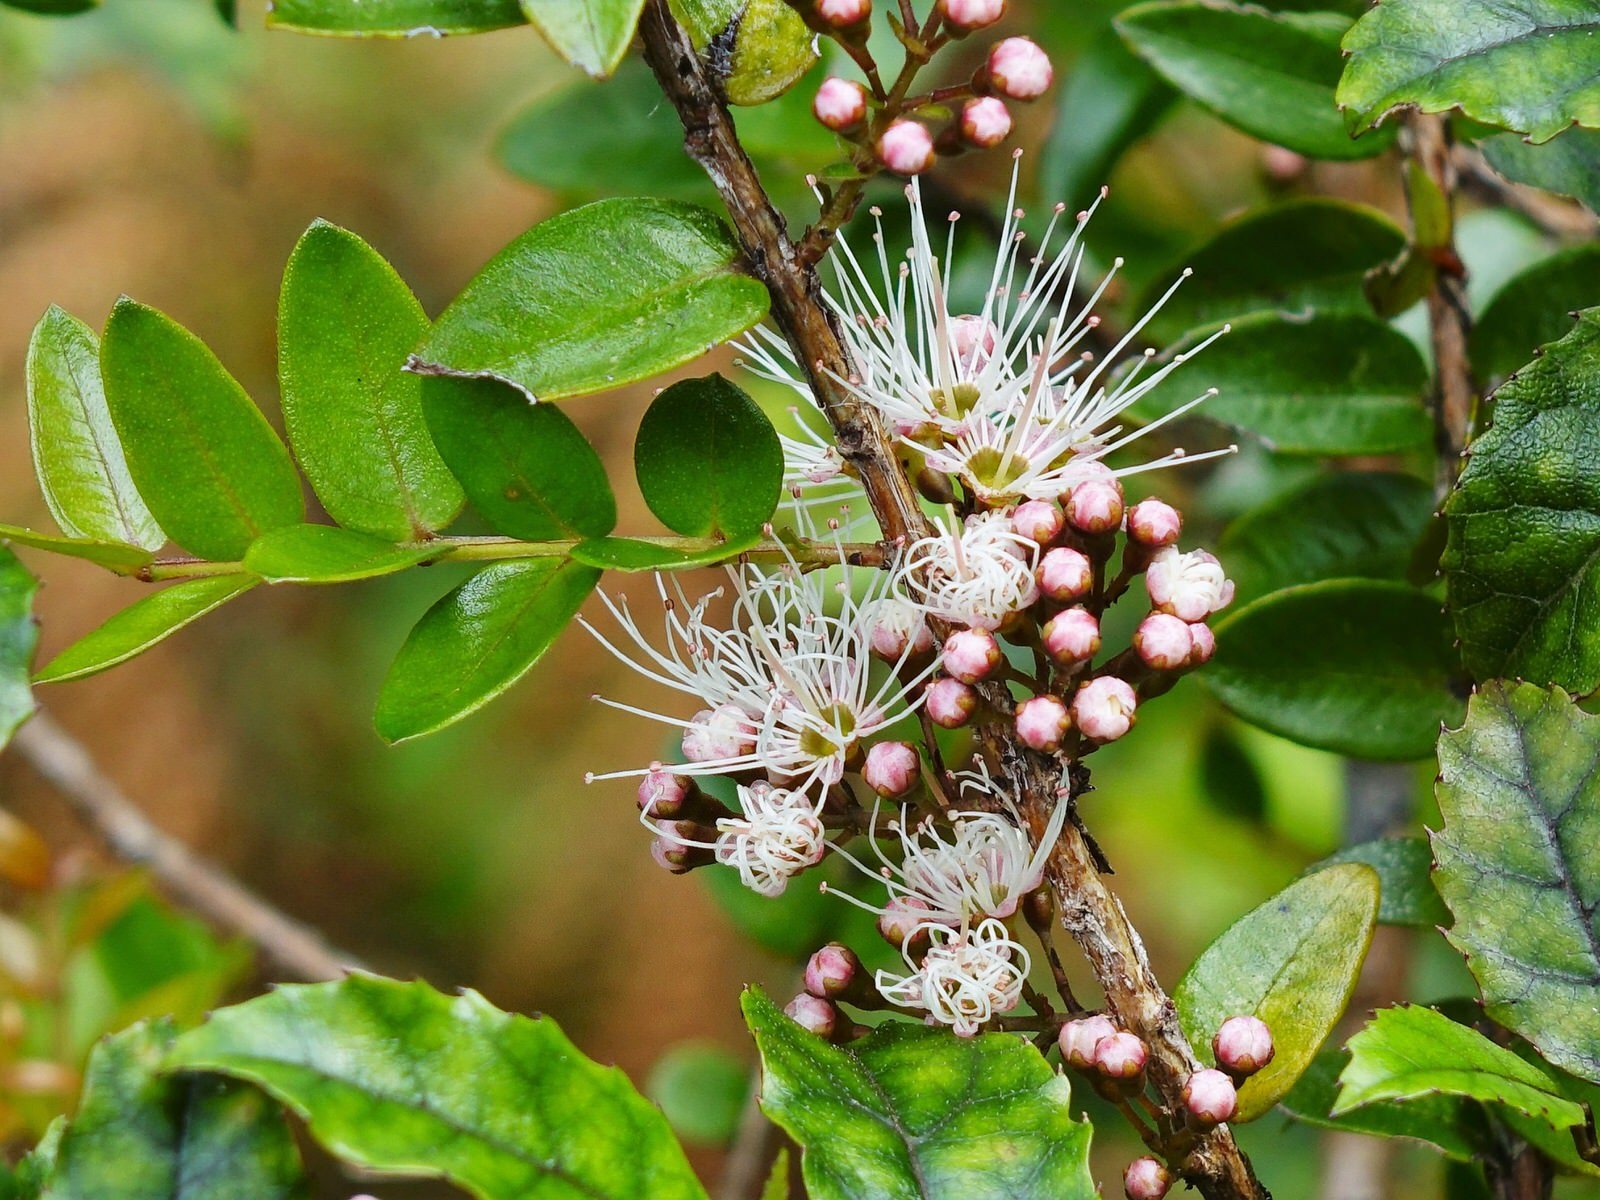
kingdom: Plantae
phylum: Tracheophyta
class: Magnoliopsida
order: Myrtales
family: Myrtaceae
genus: Metrosideros
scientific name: Metrosideros diffusa
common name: Small ratavine
